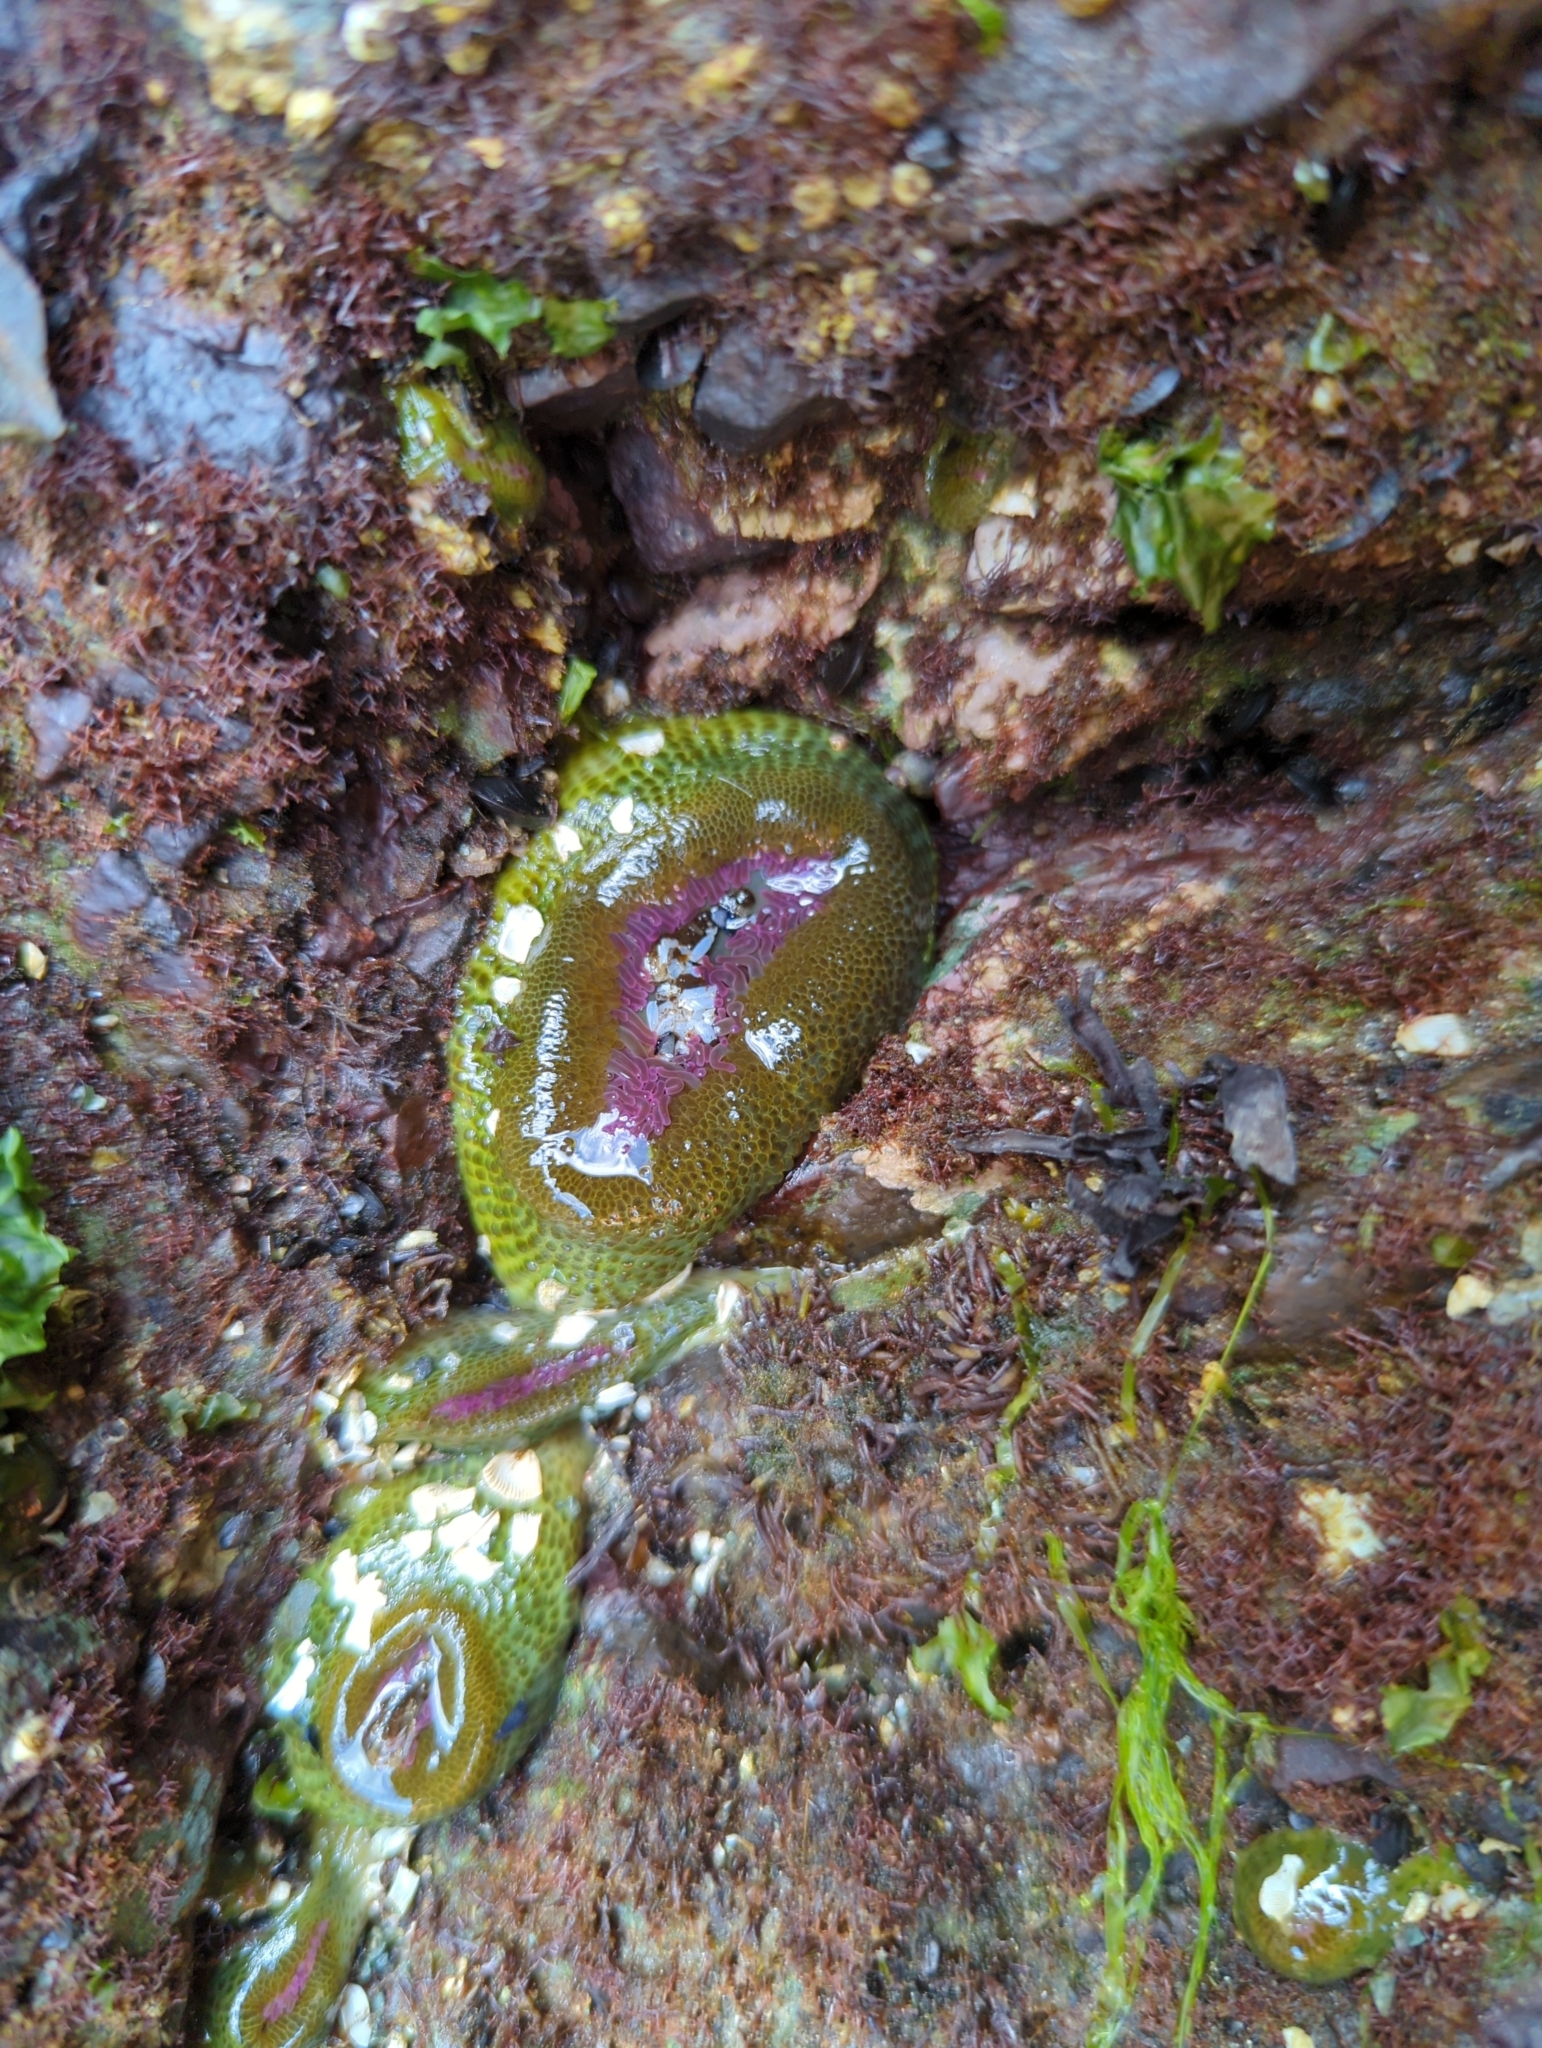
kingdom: Animalia
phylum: Cnidaria
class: Anthozoa
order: Actiniaria
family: Actiniidae
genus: Anthopleura
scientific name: Anthopleura elegantissima
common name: Clonal anemone
